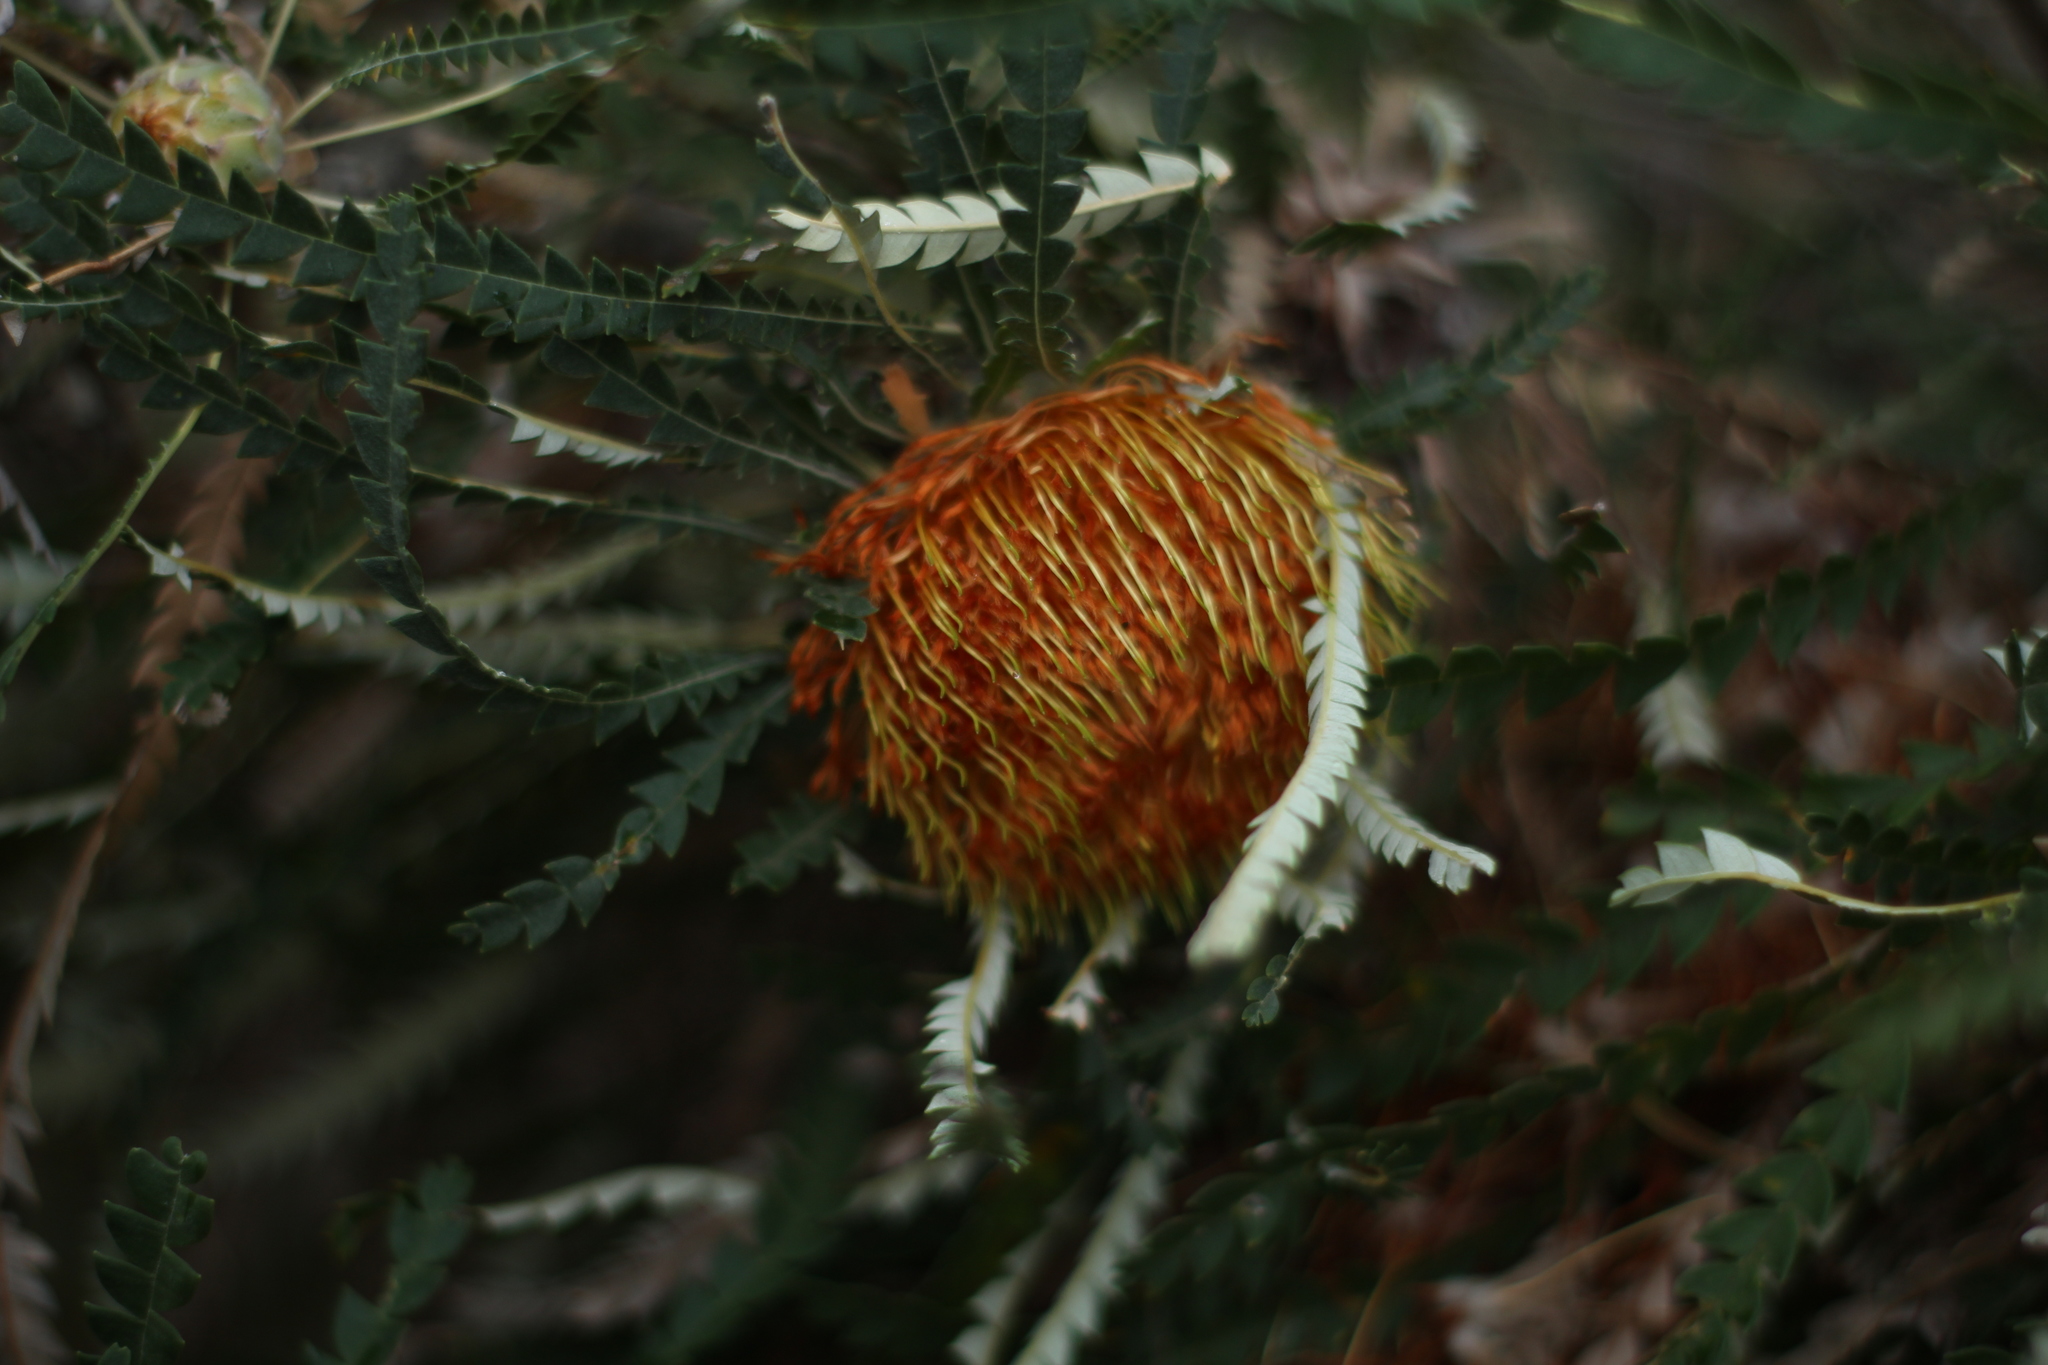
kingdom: Plantae
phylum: Tracheophyta
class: Magnoliopsida
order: Proteales
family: Proteaceae
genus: Banksia
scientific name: Banksia formosa
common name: Showy dryandra
